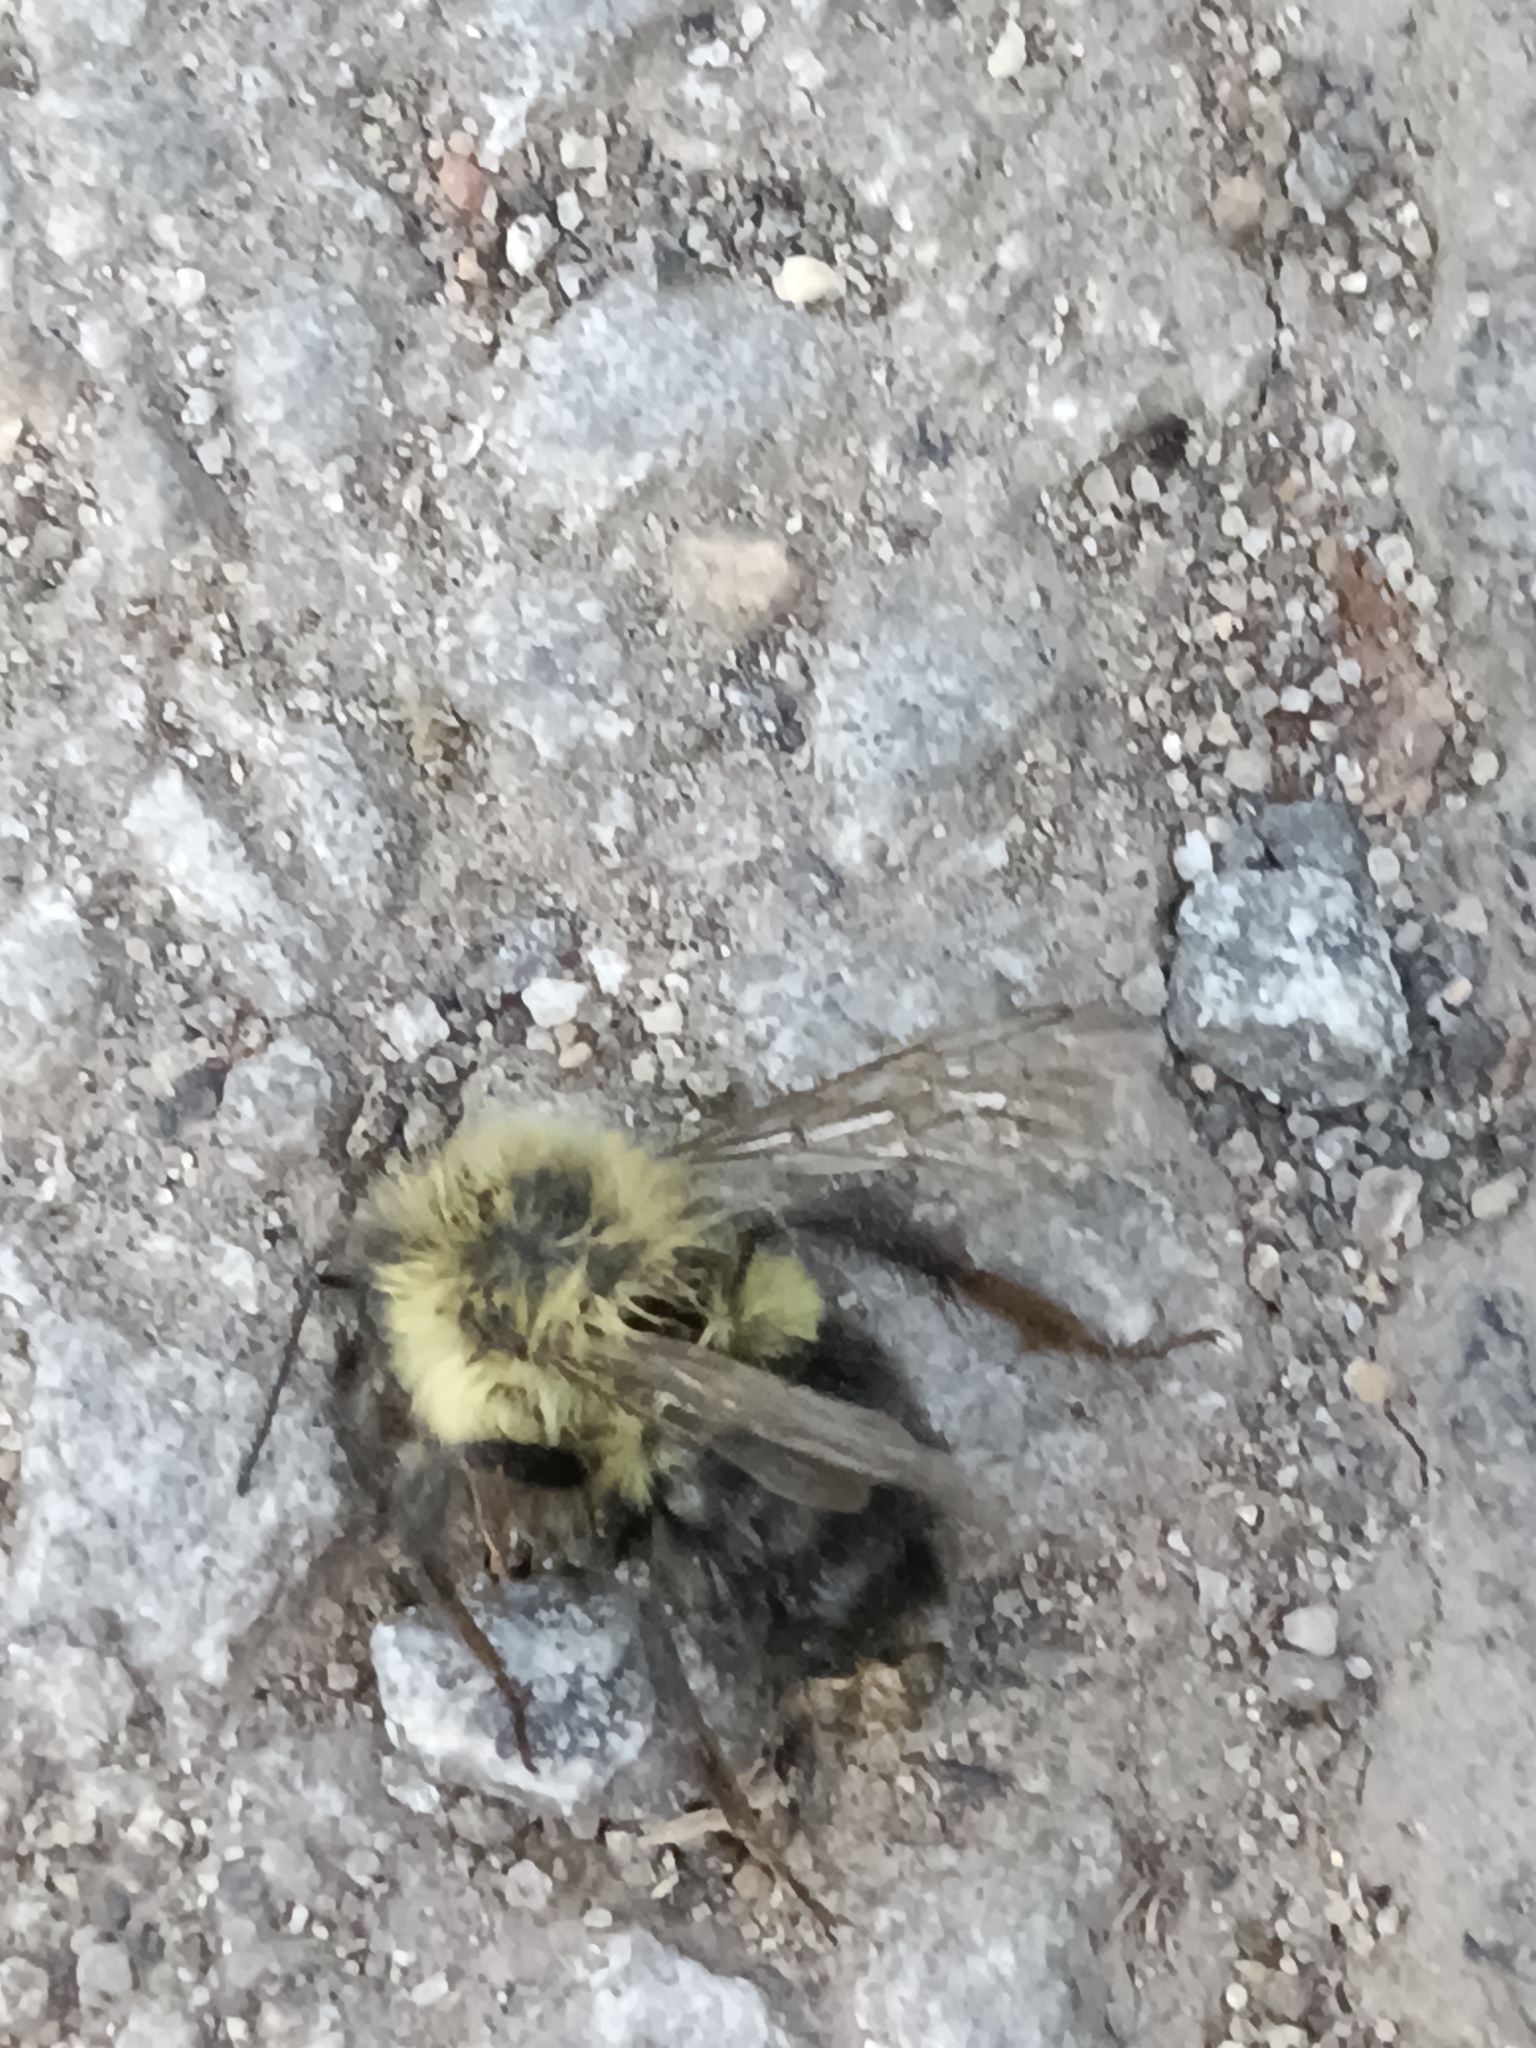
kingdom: Animalia
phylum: Arthropoda
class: Insecta
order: Hymenoptera
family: Apidae
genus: Bombus
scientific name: Bombus impatiens
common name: Common eastern bumble bee
